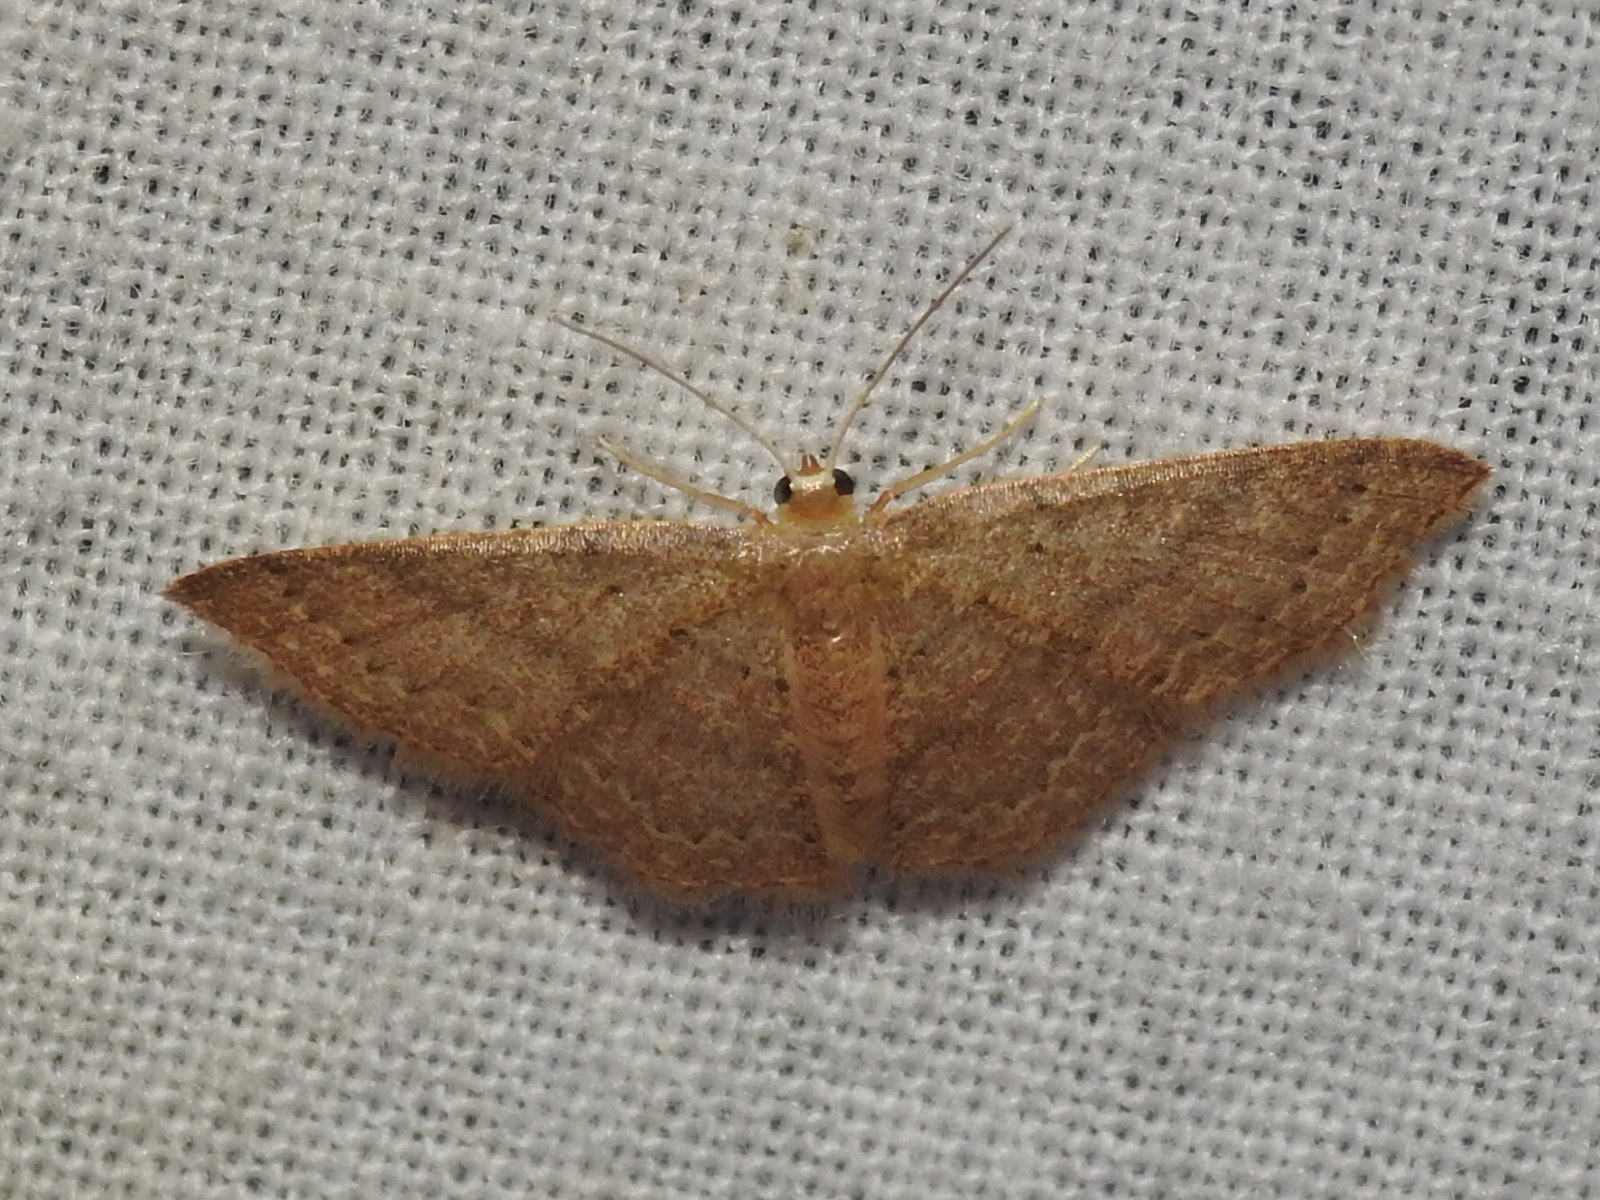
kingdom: Animalia
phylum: Arthropoda
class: Insecta
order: Lepidoptera
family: Geometridae
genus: Pleuroprucha
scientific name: Pleuroprucha insulsaria
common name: Common tan wave
